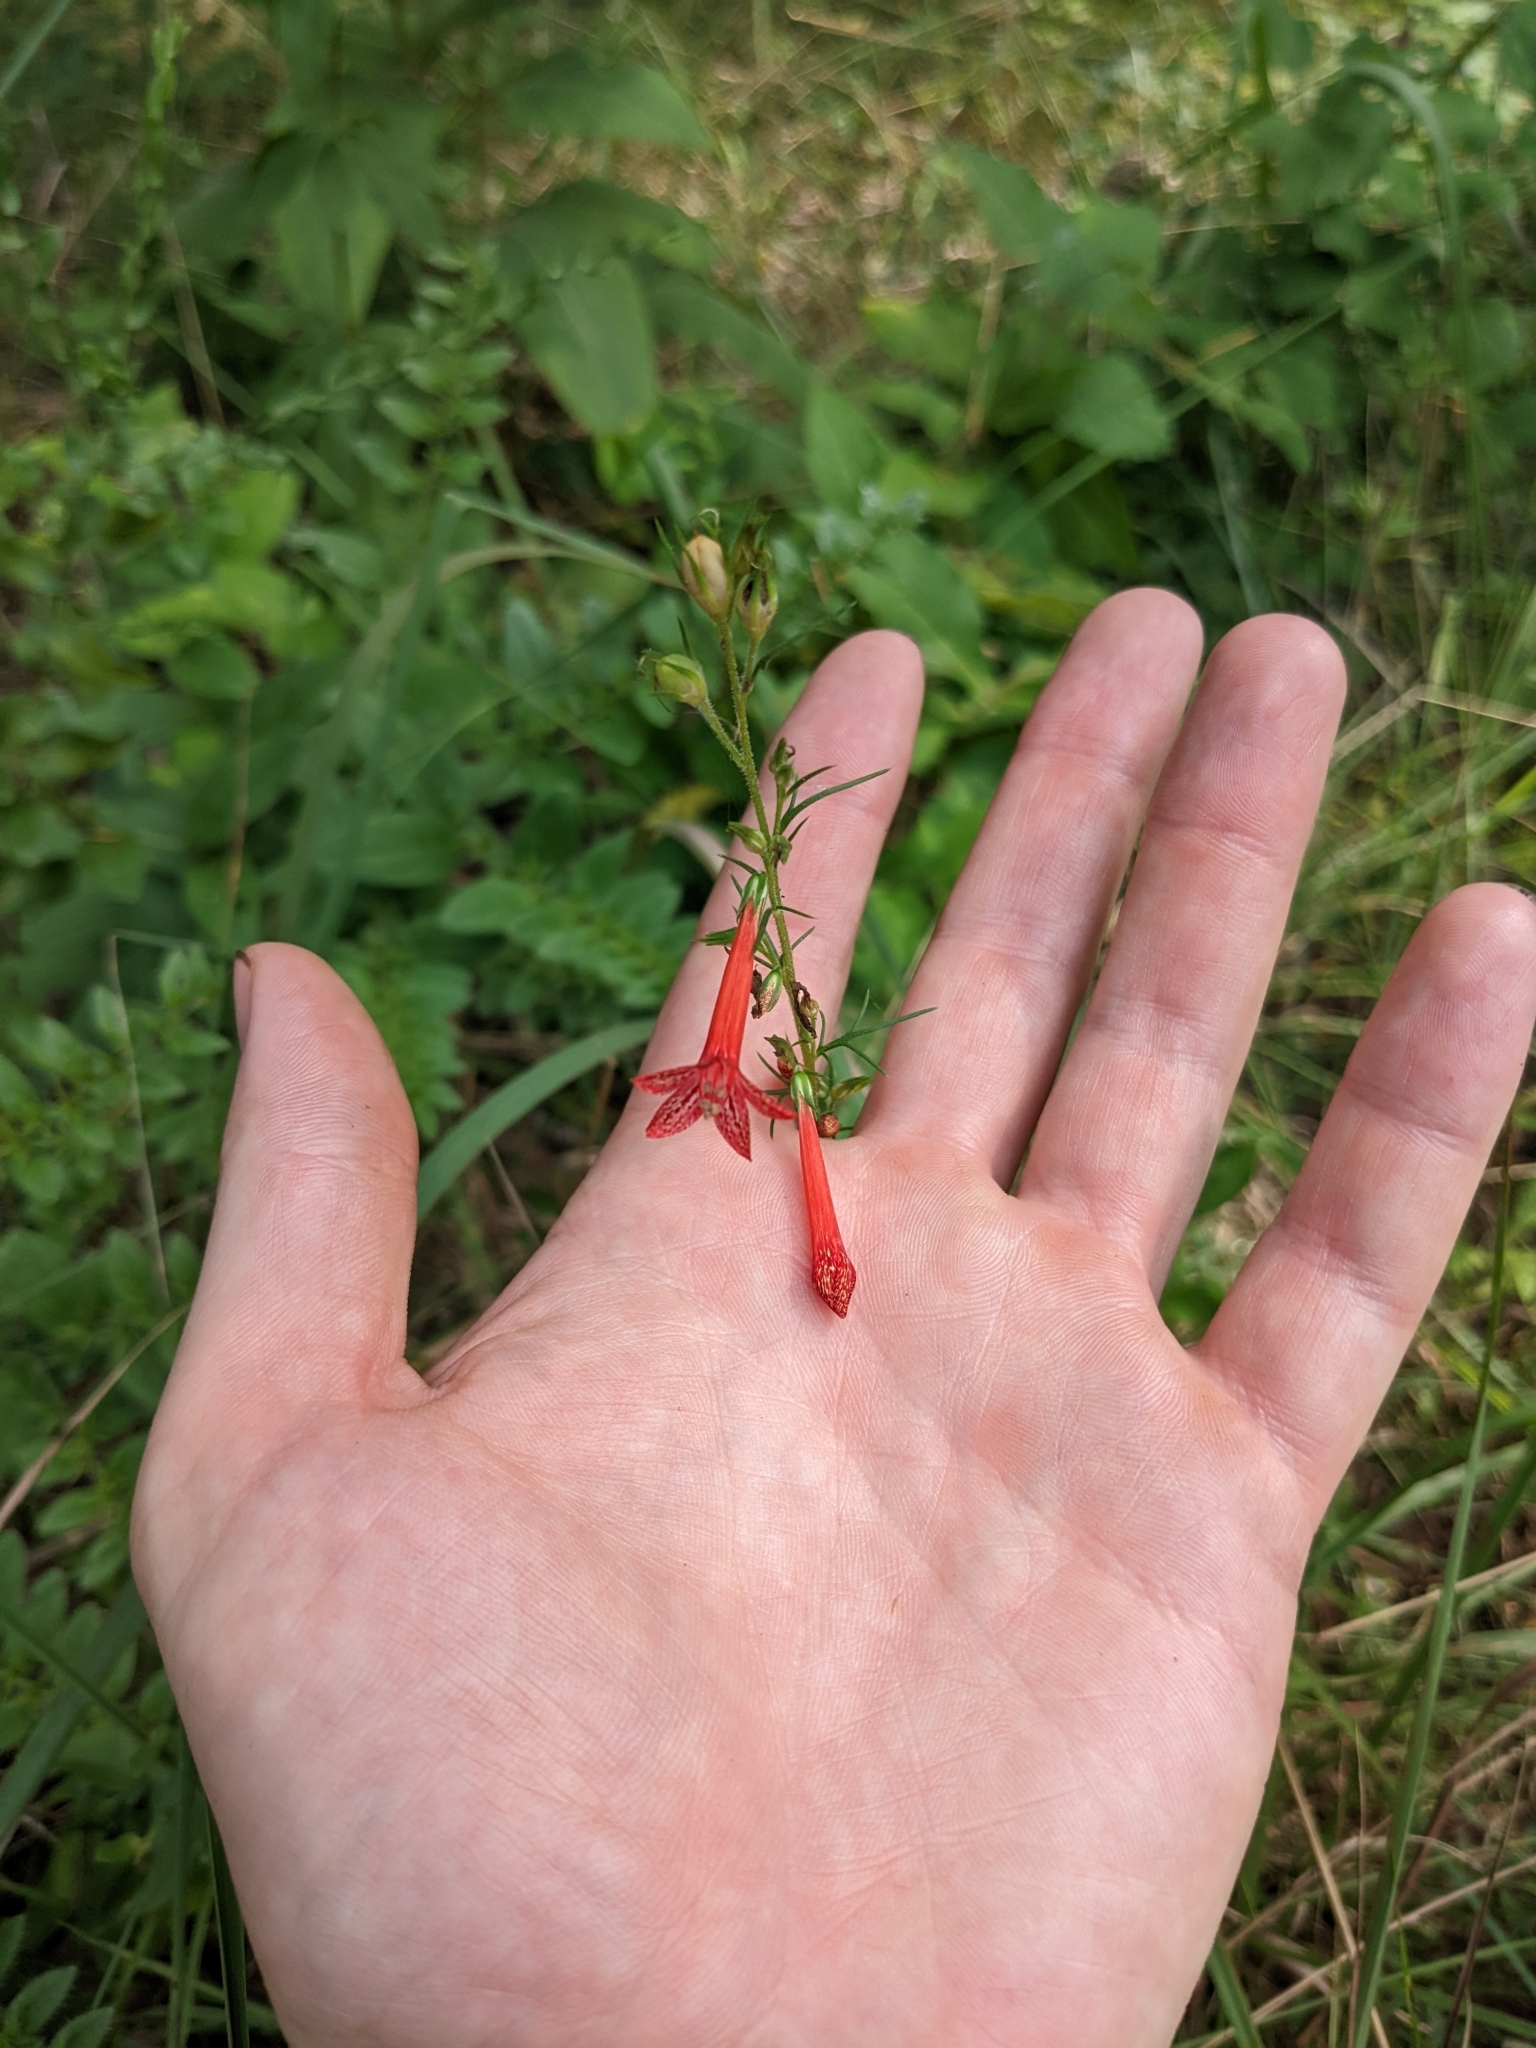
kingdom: Plantae
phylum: Tracheophyta
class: Magnoliopsida
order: Ericales
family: Polemoniaceae
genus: Ipomopsis
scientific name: Ipomopsis rubra
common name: Skyrocket
